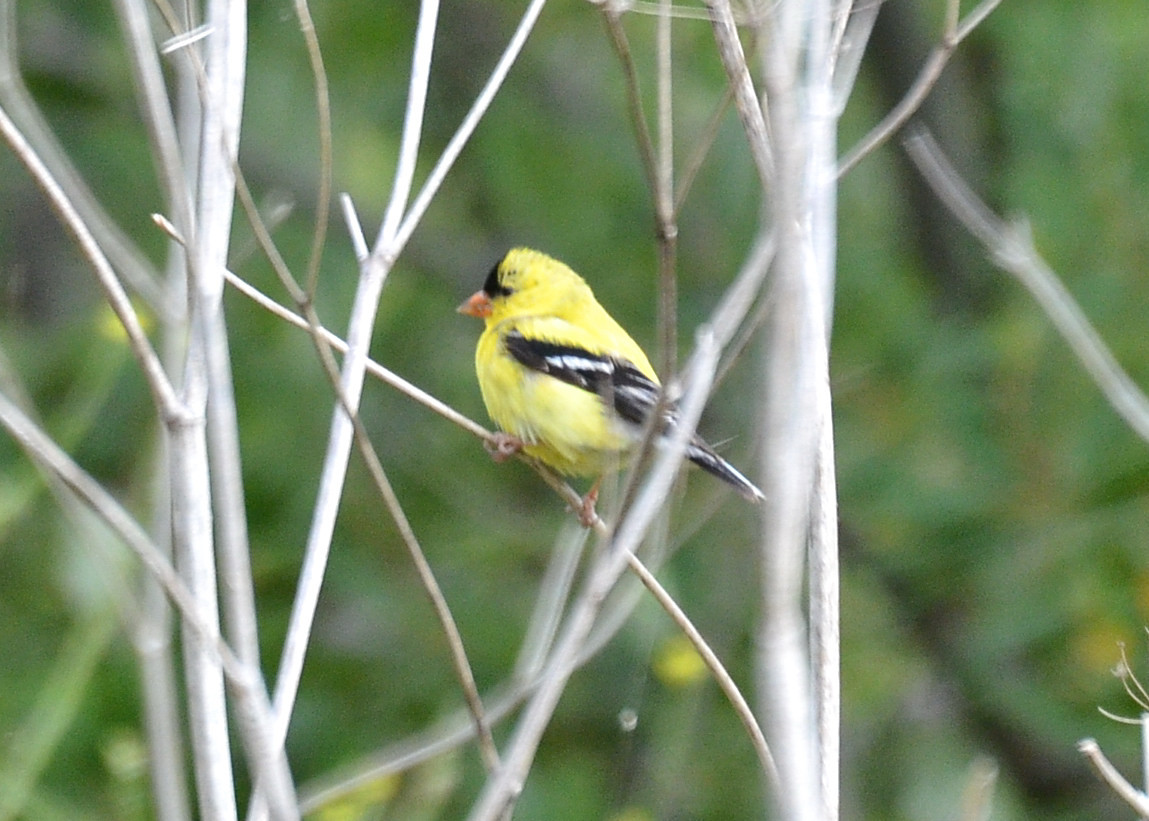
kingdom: Animalia
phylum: Chordata
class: Aves
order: Passeriformes
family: Fringillidae
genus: Spinus
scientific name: Spinus tristis
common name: American goldfinch
